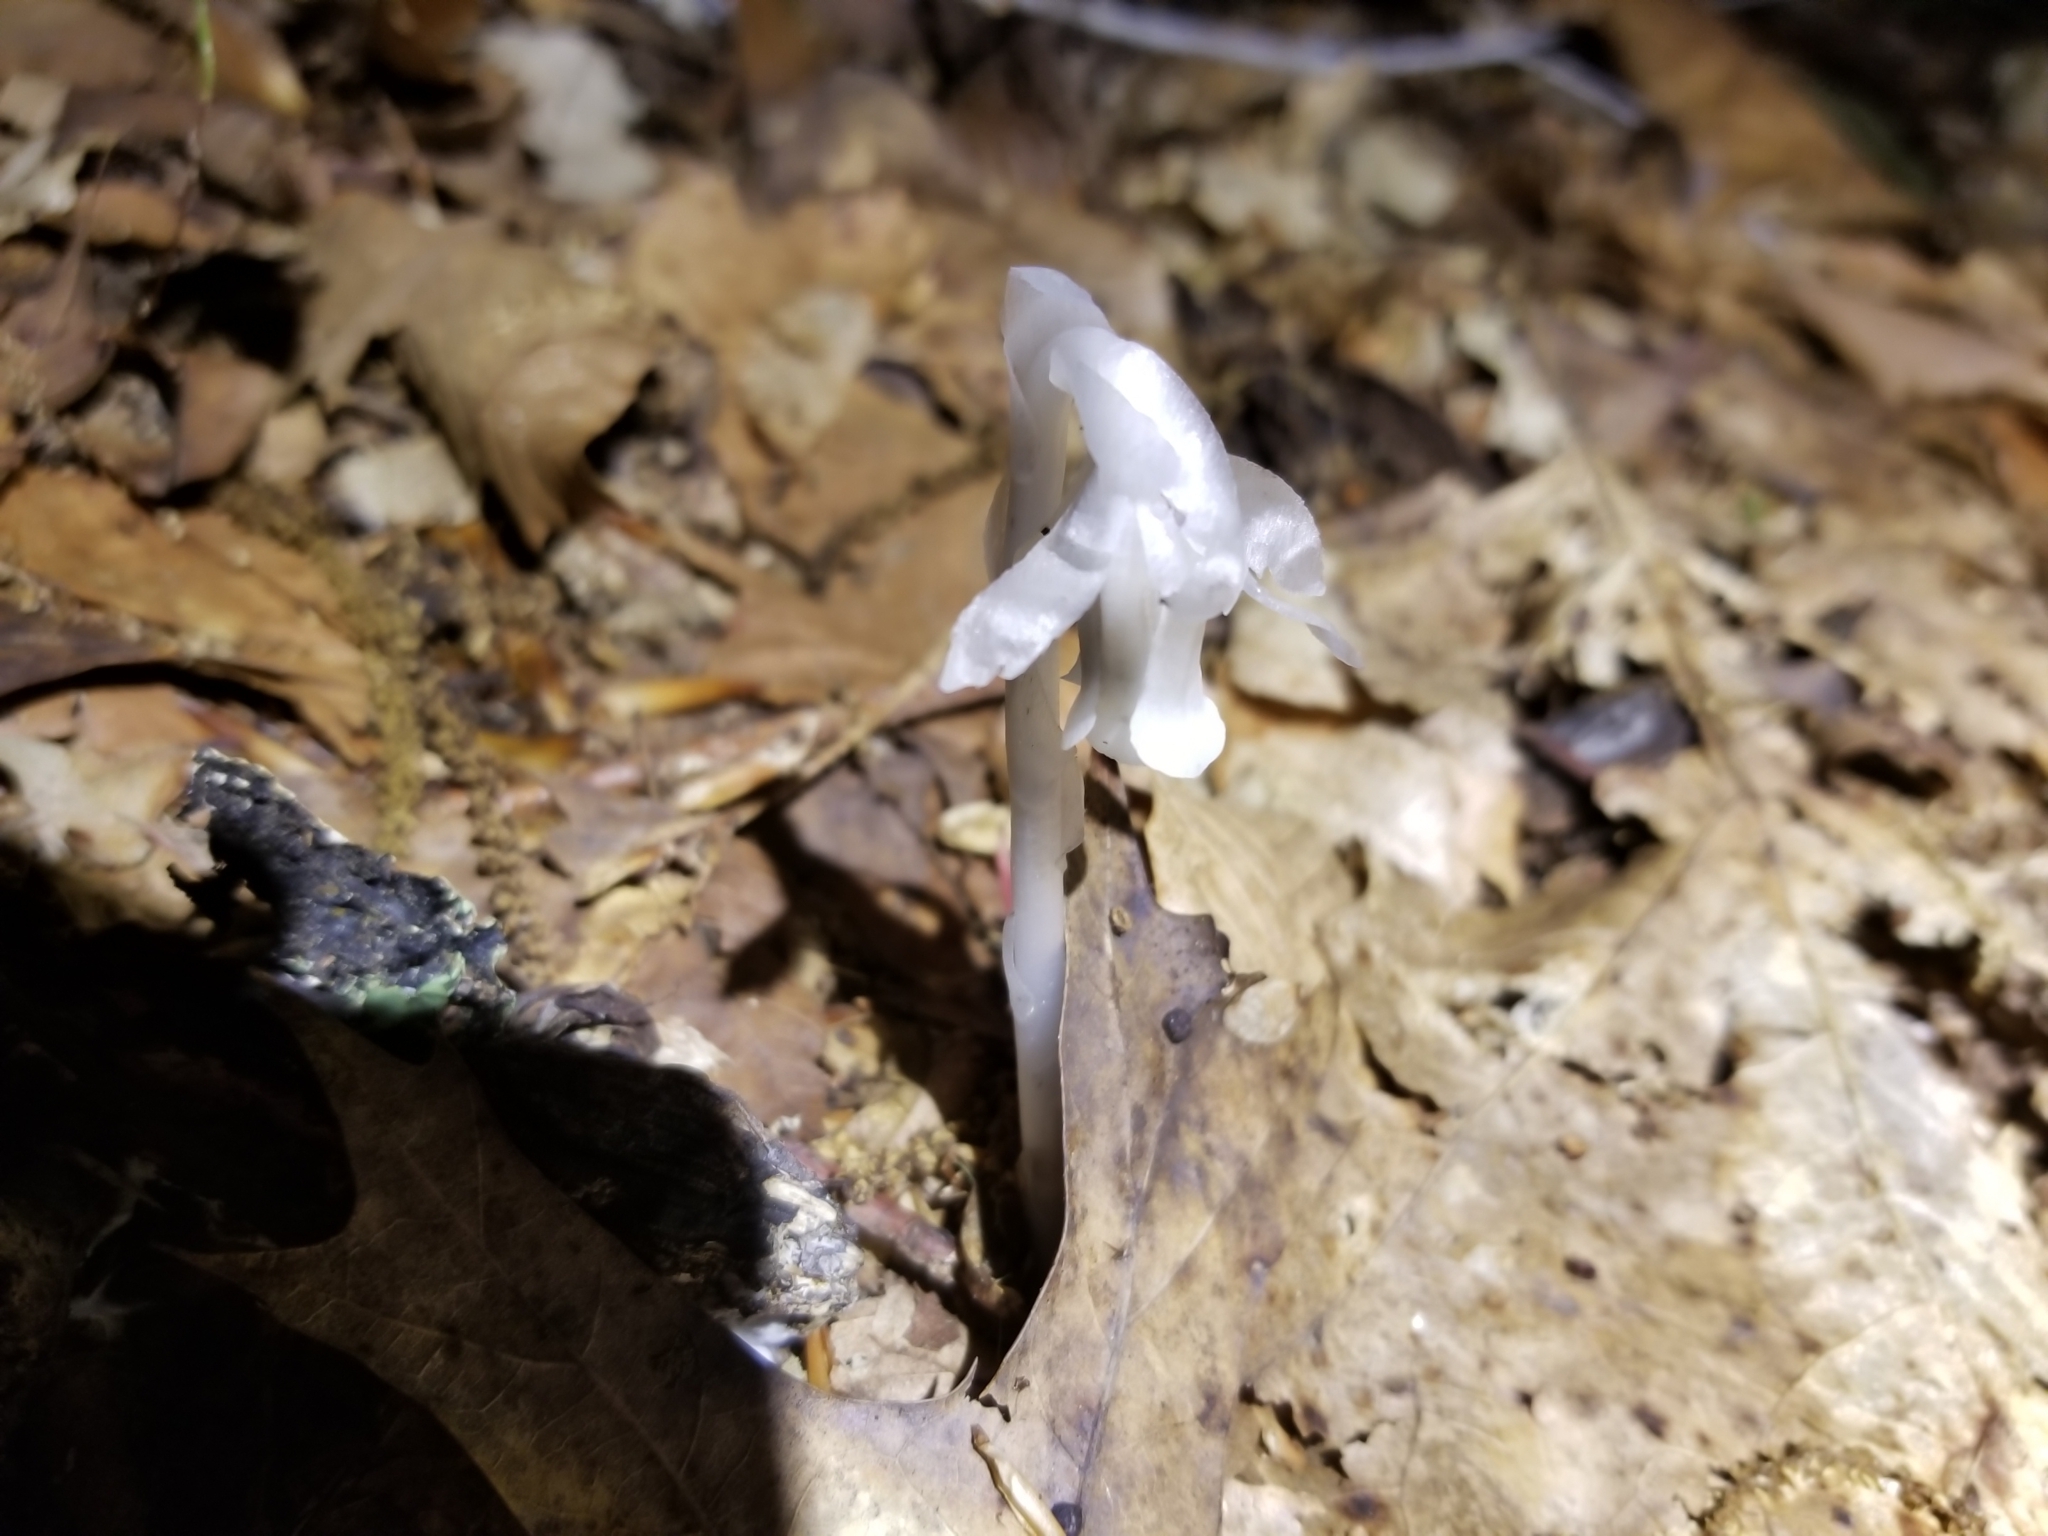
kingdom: Plantae
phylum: Tracheophyta
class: Magnoliopsida
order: Ericales
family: Ericaceae
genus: Monotropa
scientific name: Monotropa uniflora
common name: Convulsion root
